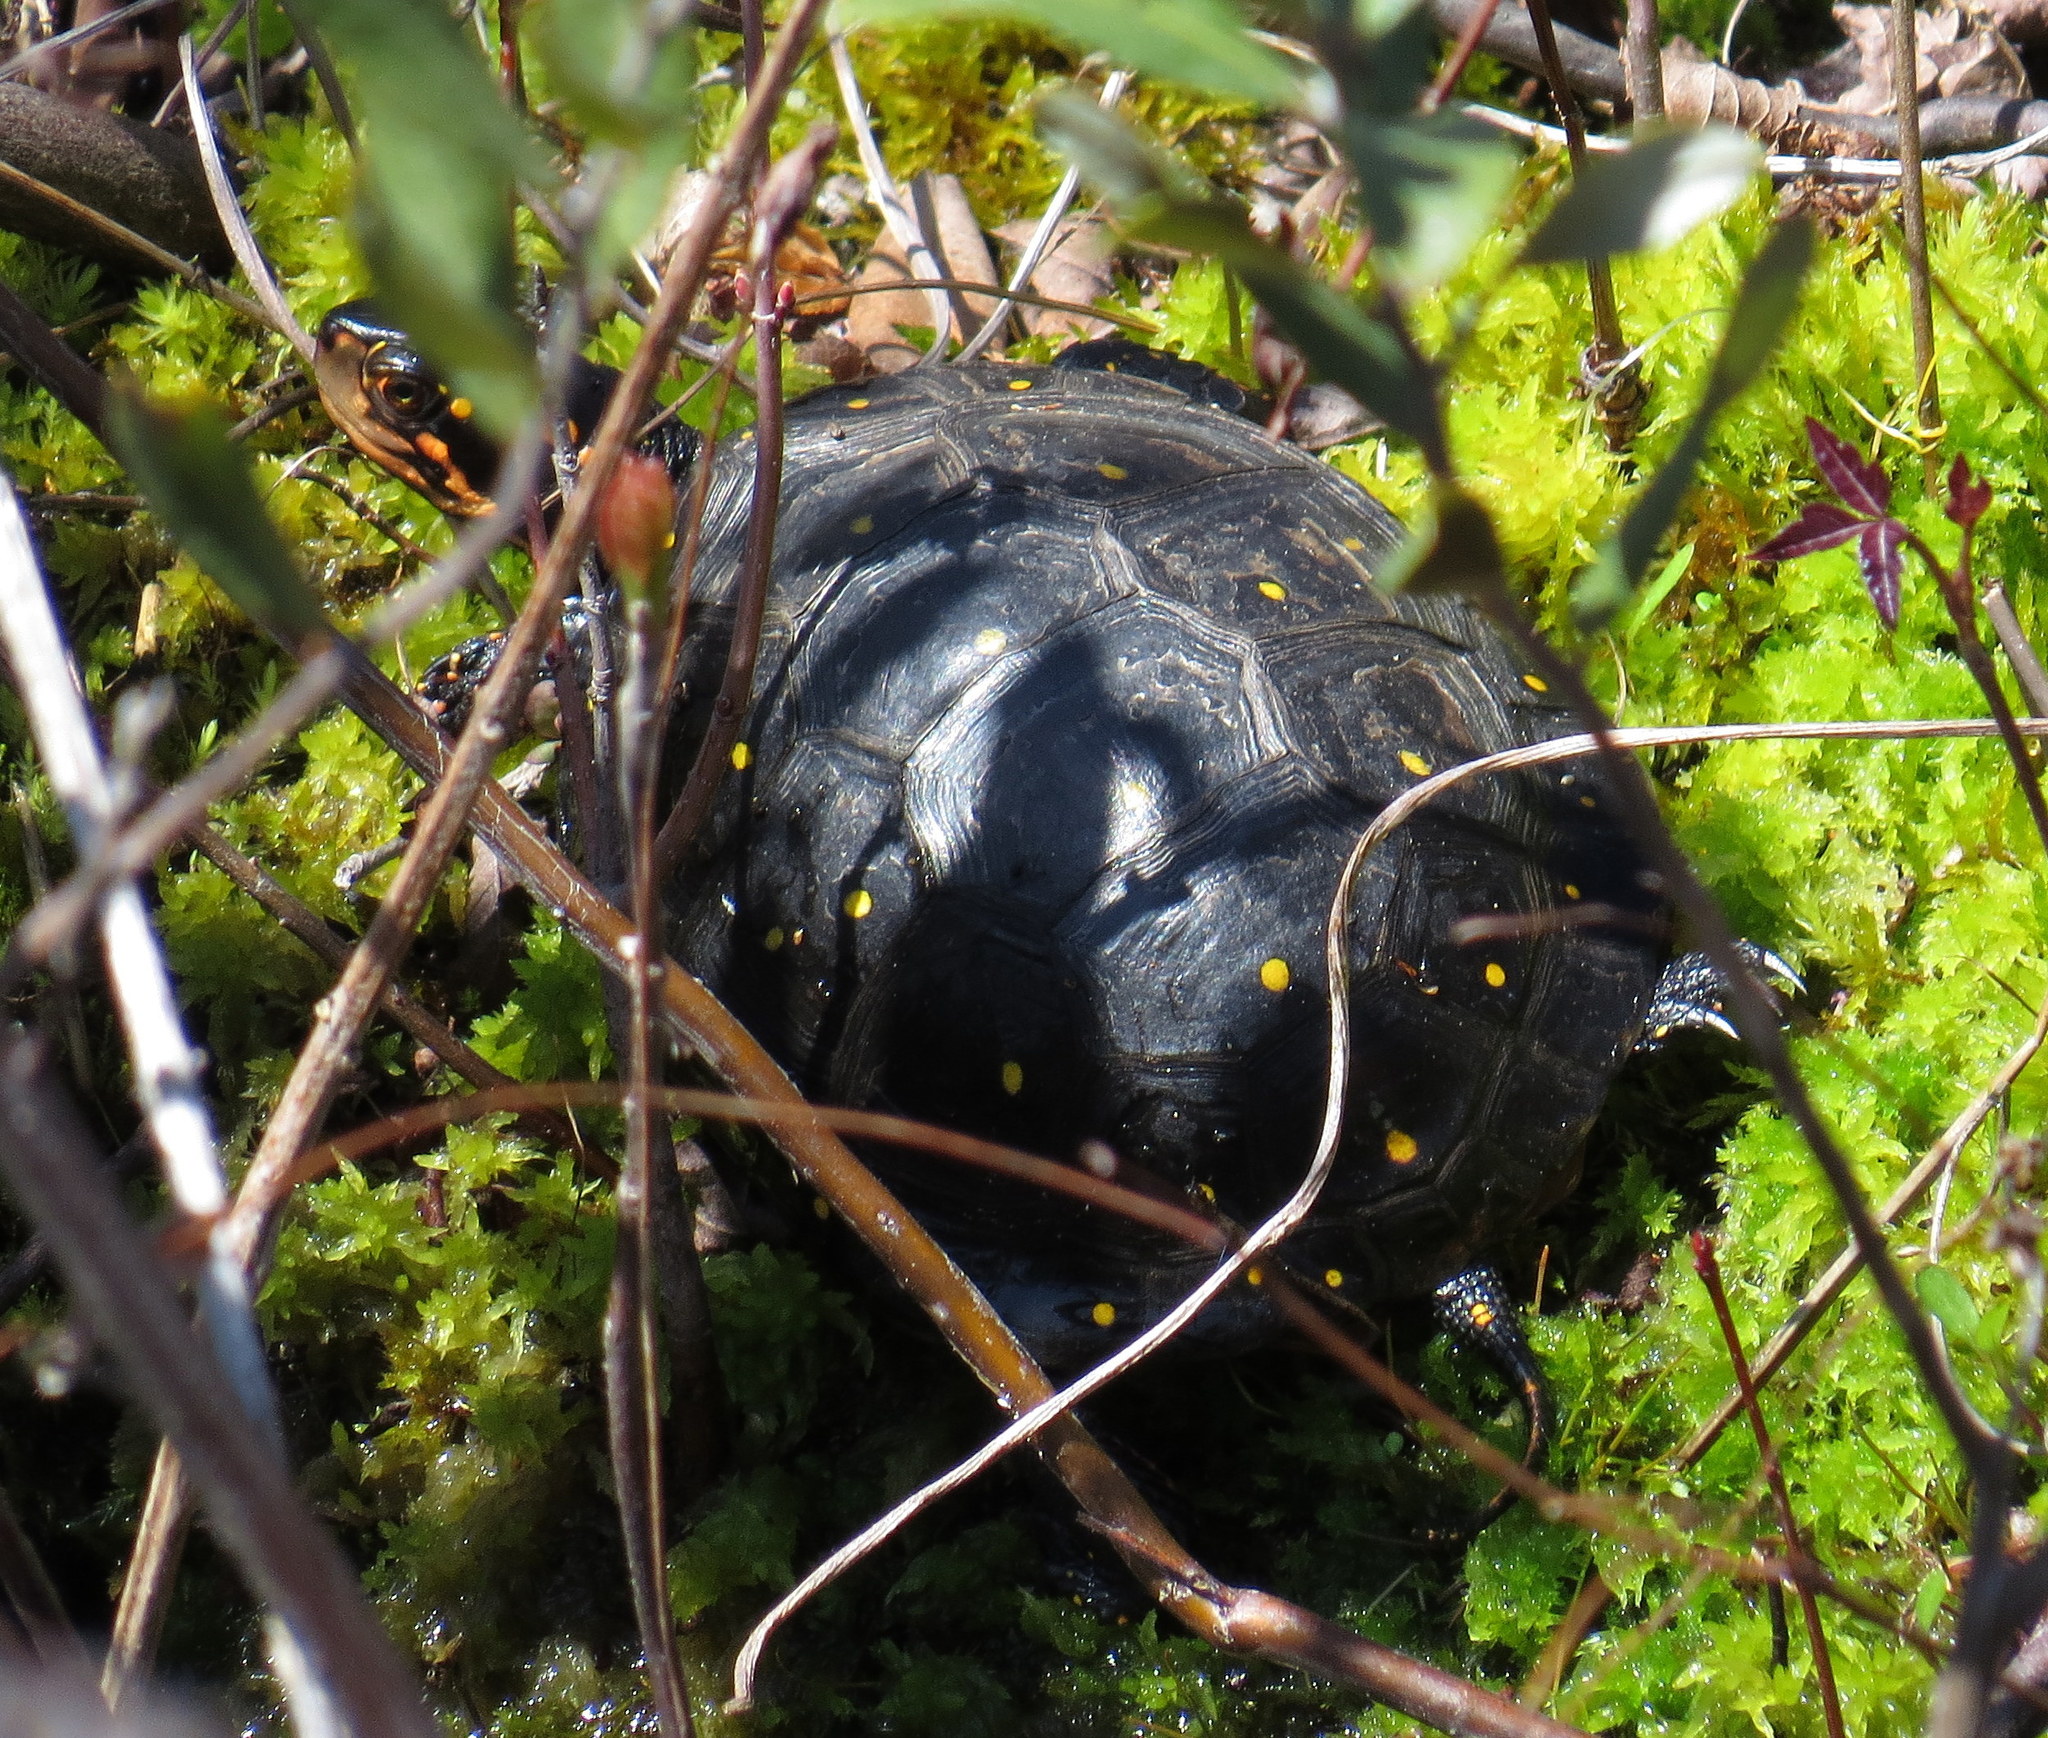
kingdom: Animalia
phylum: Chordata
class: Testudines
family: Emydidae
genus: Clemmys
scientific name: Clemmys guttata
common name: Spotted turtle
